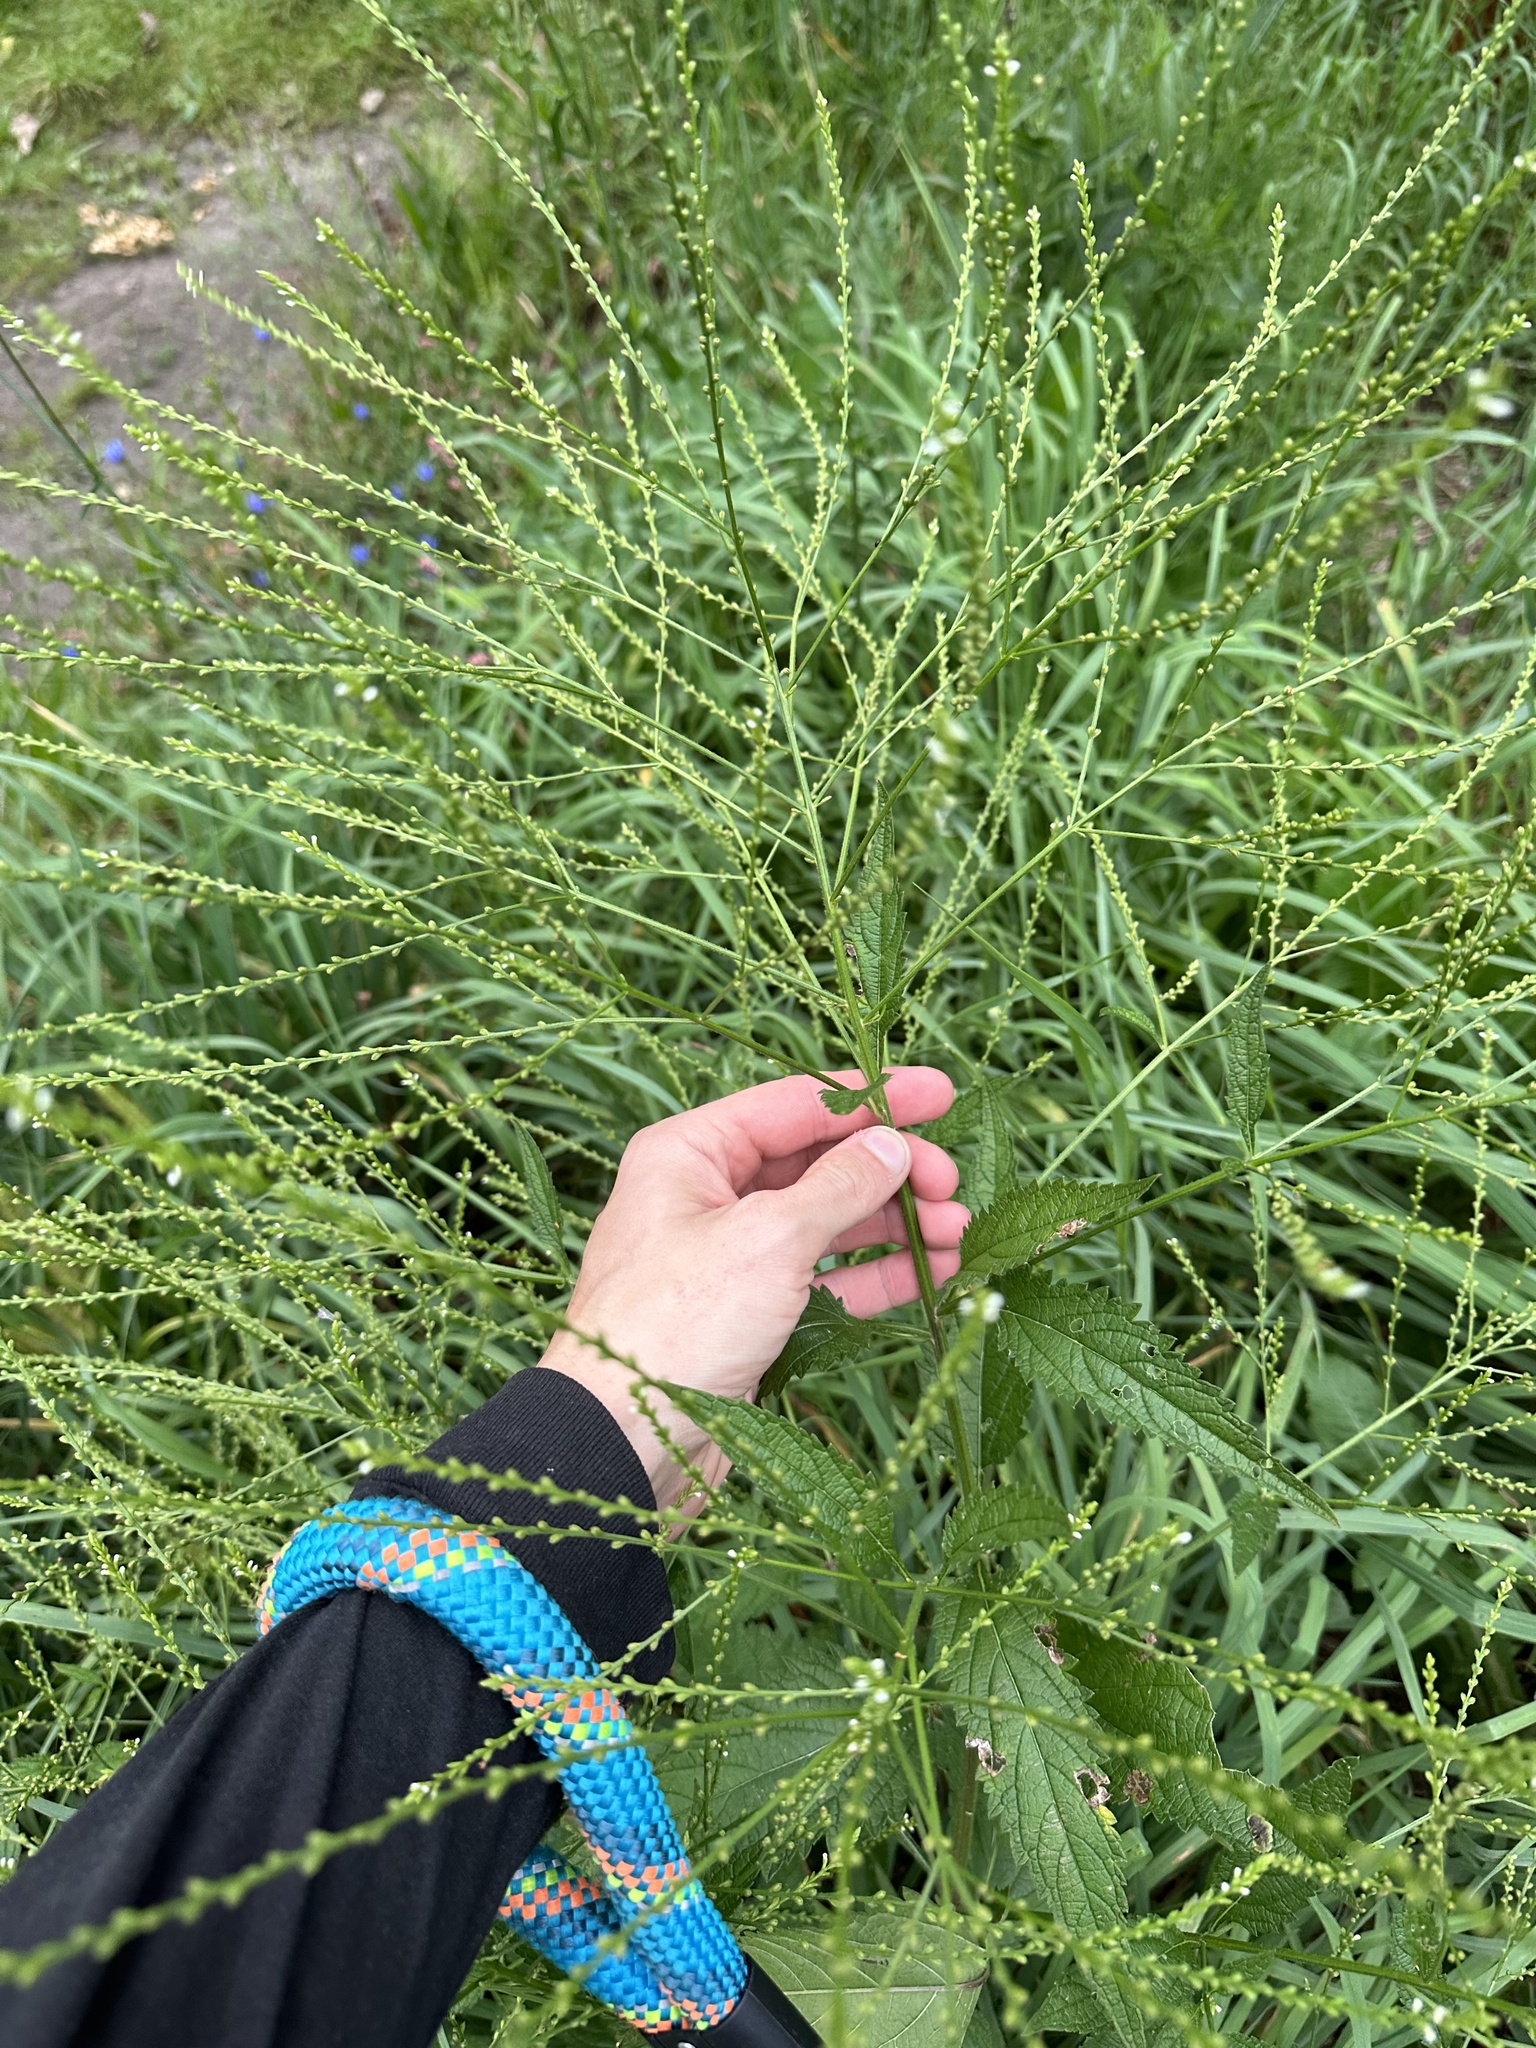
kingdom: Plantae
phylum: Tracheophyta
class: Magnoliopsida
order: Lamiales
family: Verbenaceae
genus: Verbena
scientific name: Verbena urticifolia
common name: Nettle-leaved vervain
